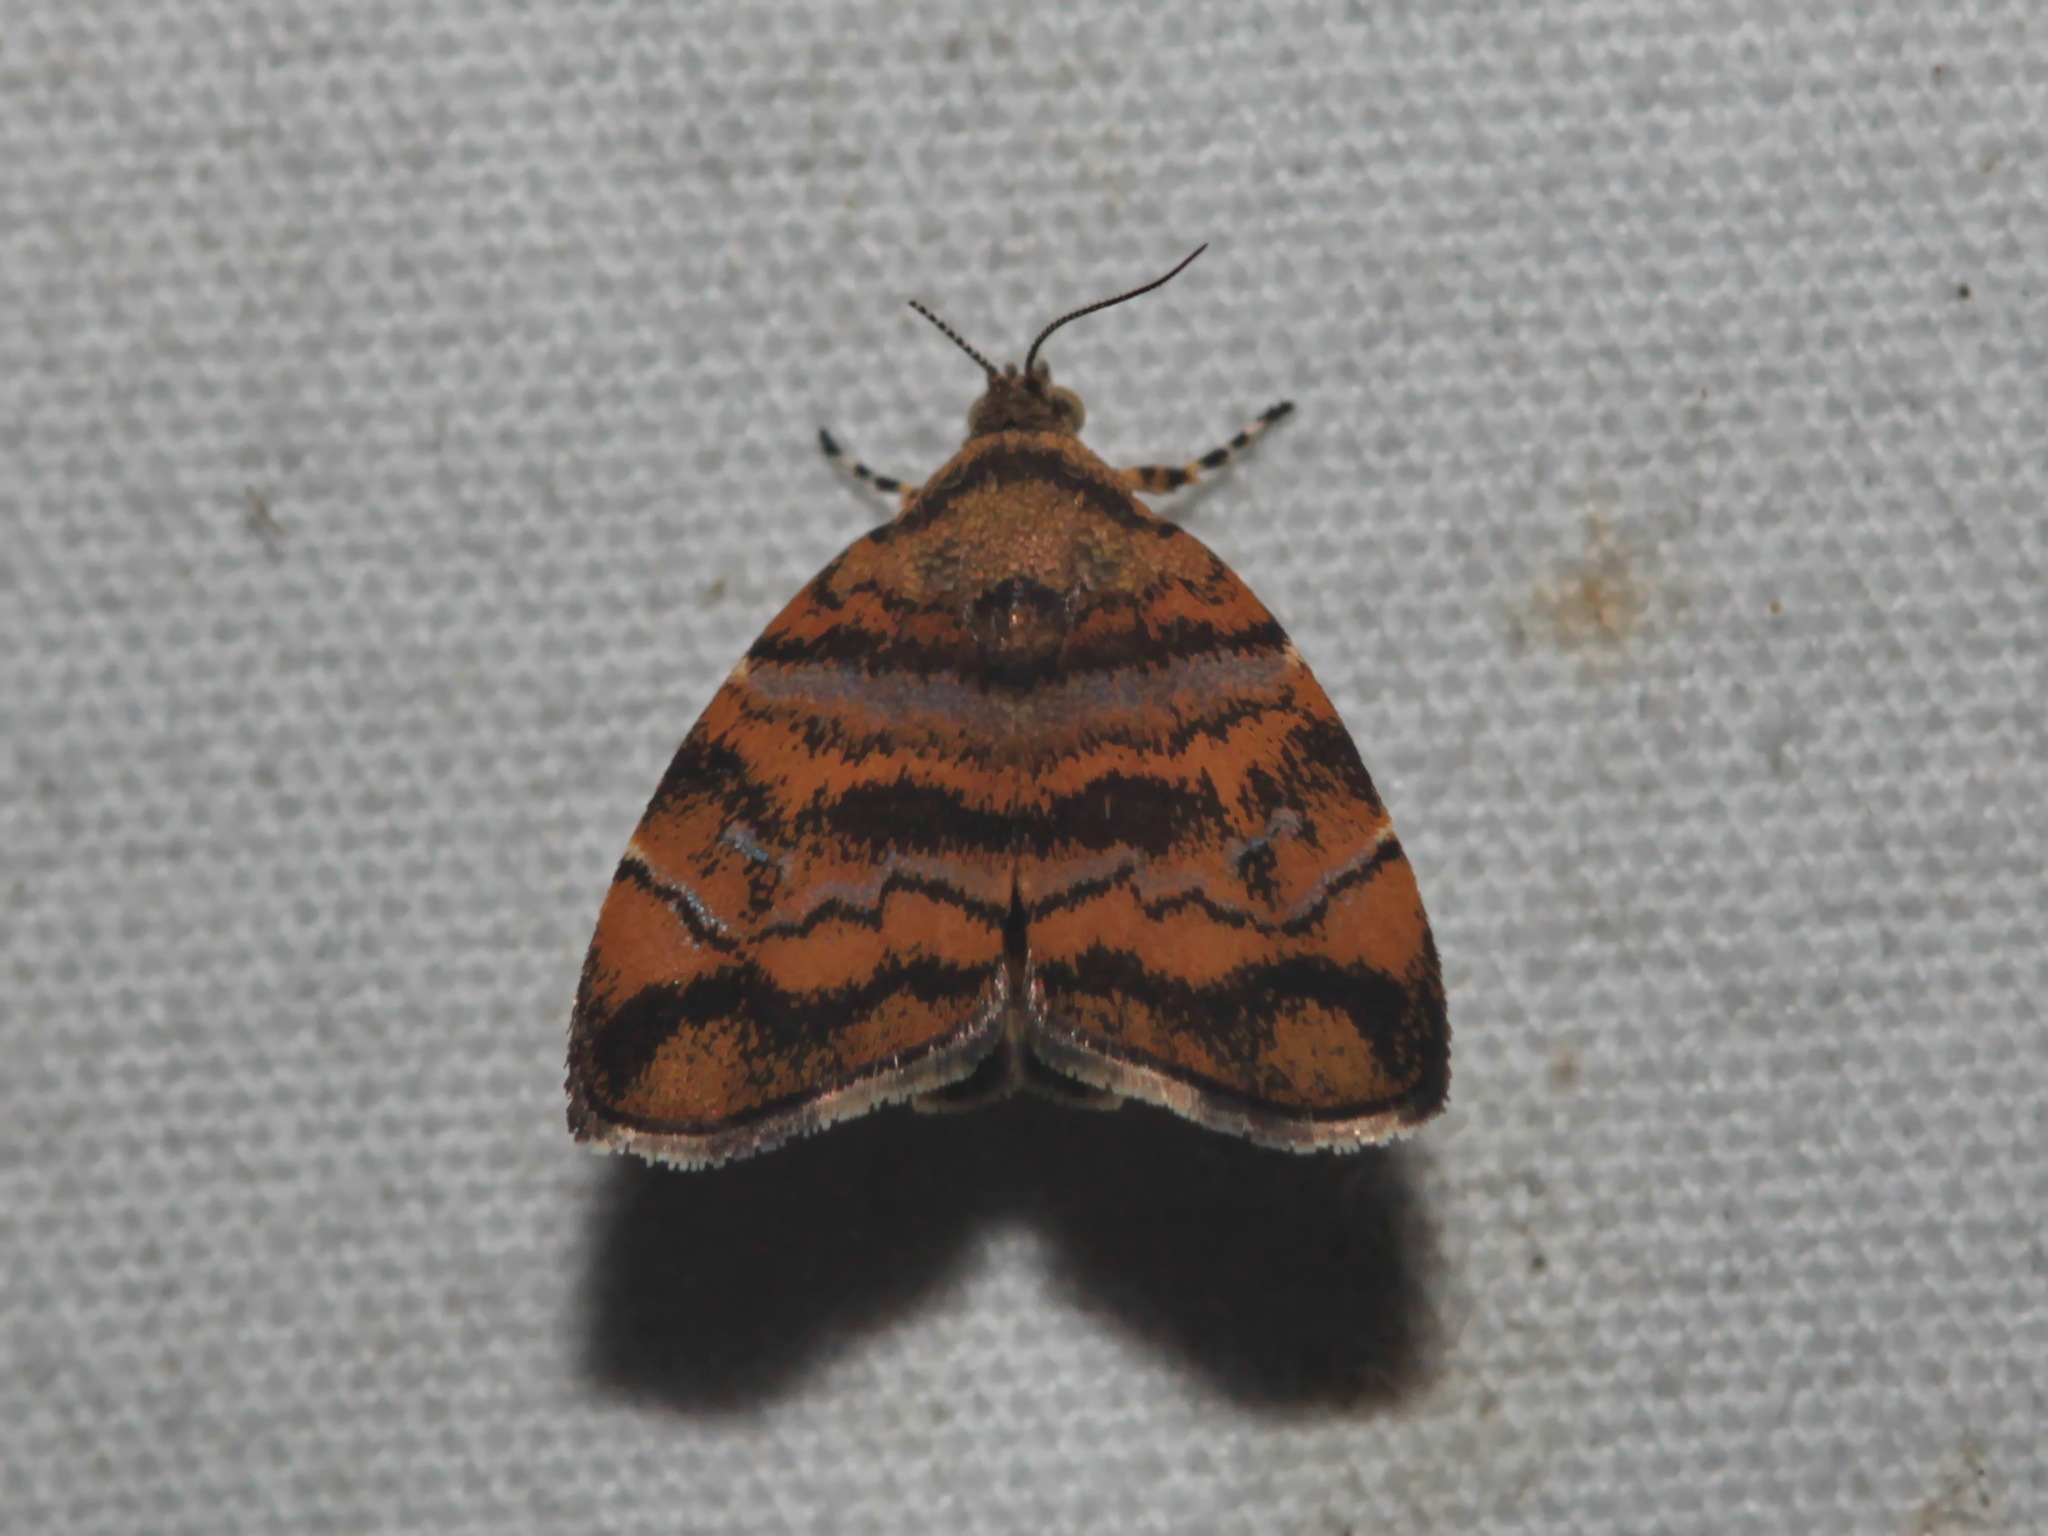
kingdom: Animalia
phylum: Arthropoda
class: Insecta
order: Lepidoptera
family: Choreutidae
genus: Anthophila
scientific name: Anthophila amethystodes
